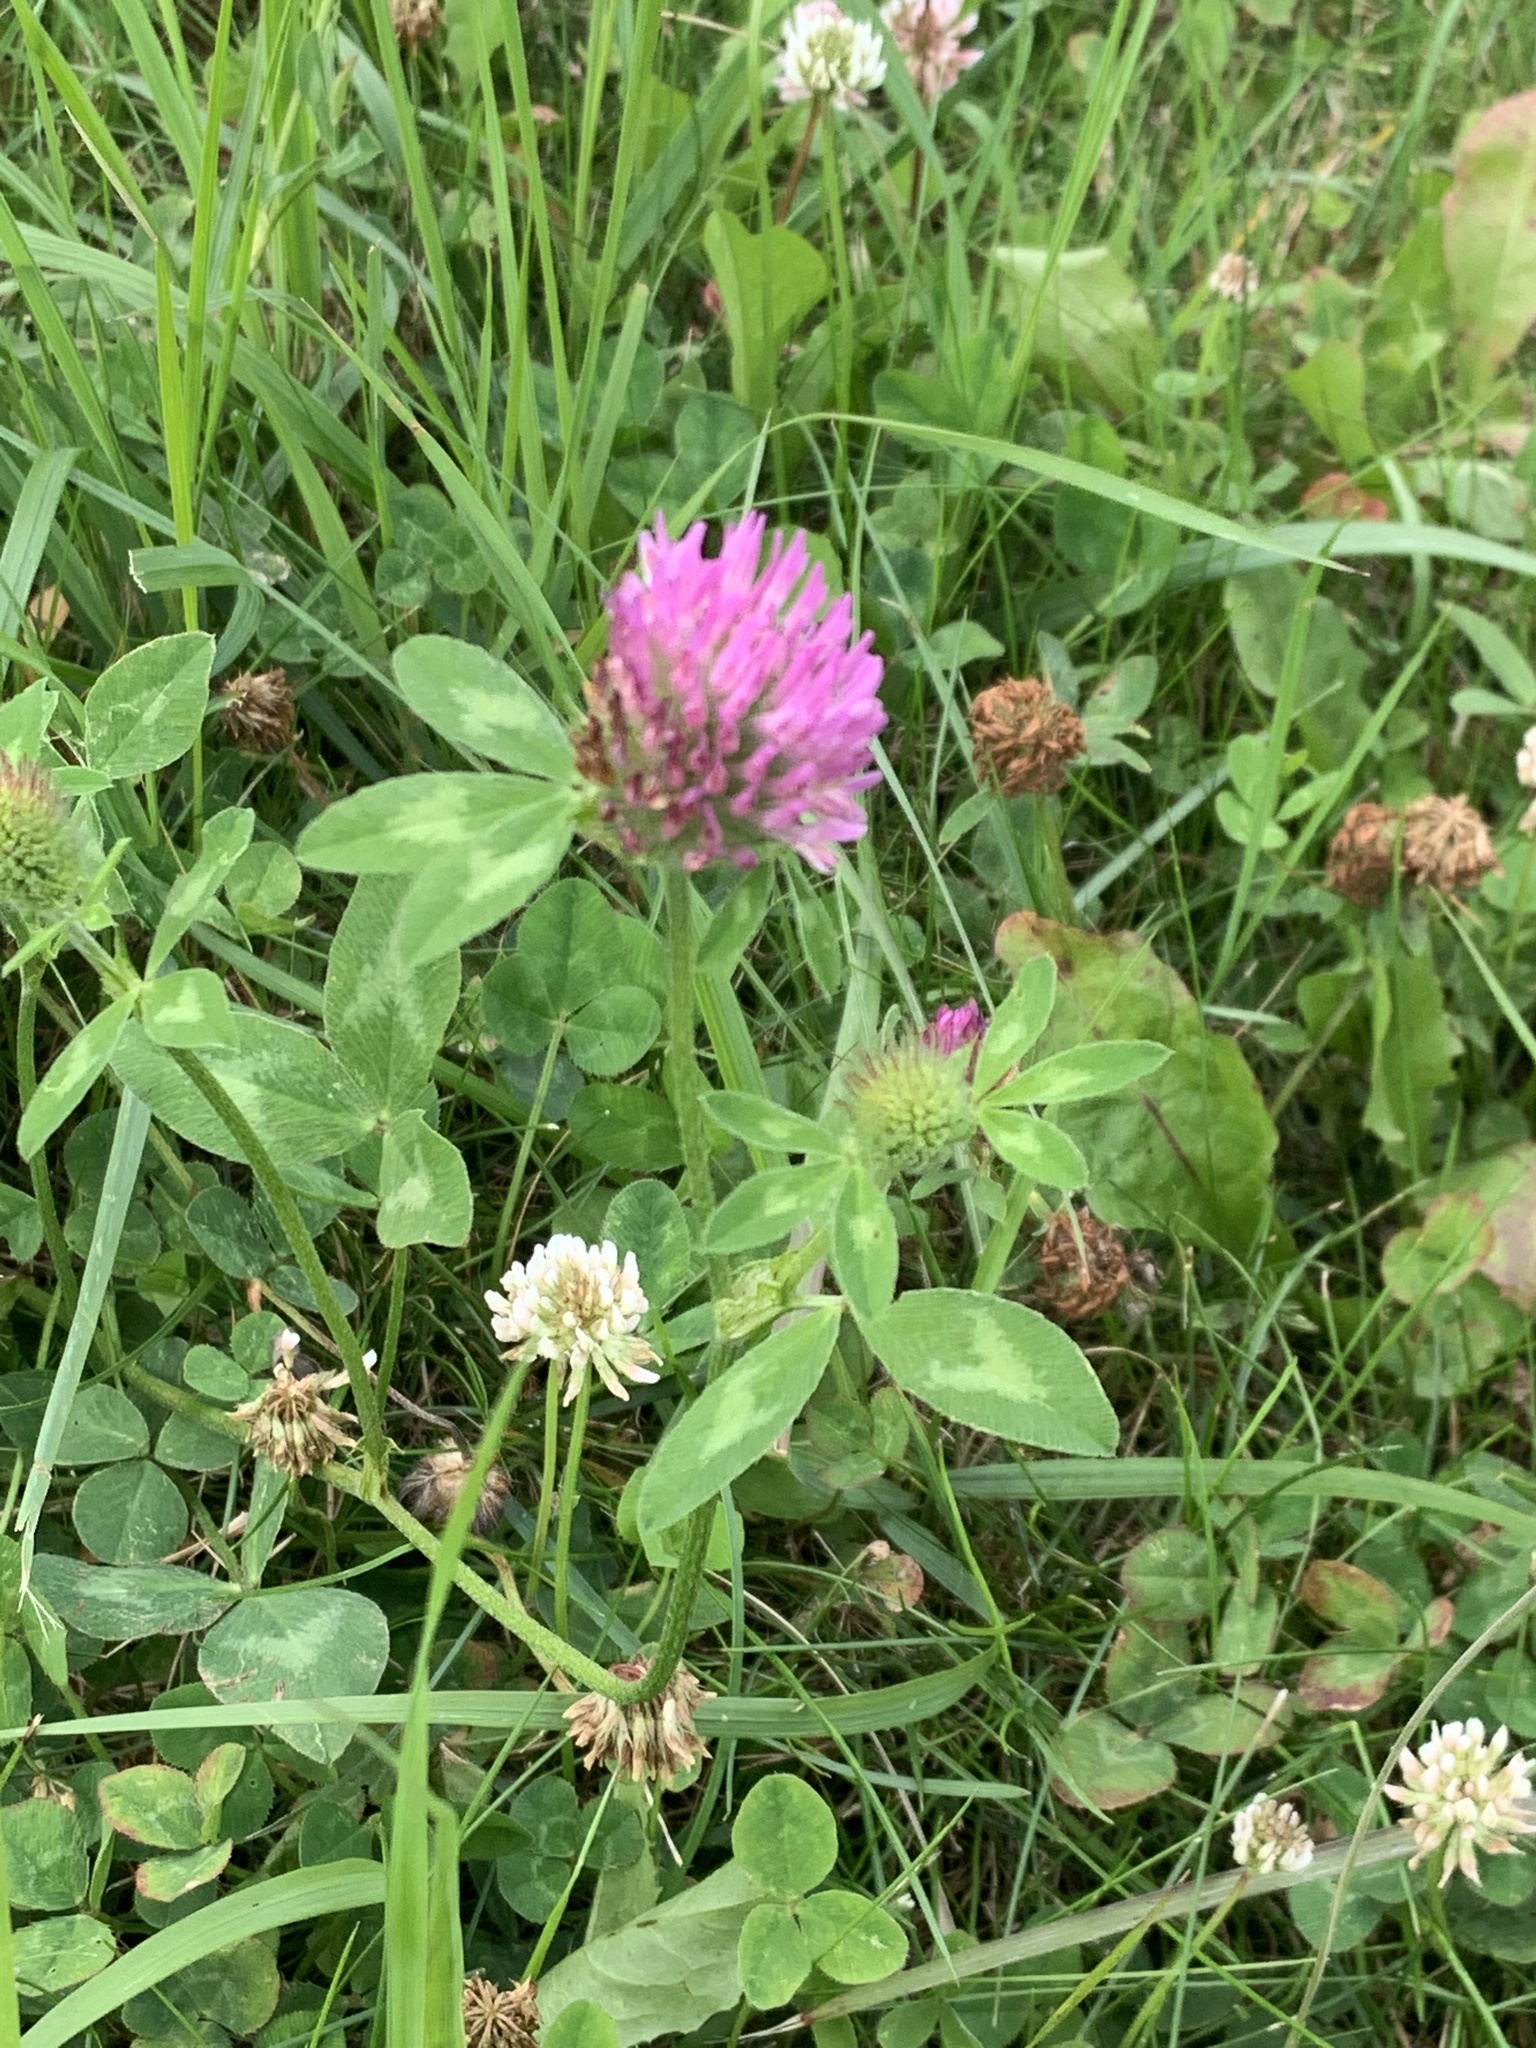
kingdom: Plantae
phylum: Tracheophyta
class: Magnoliopsida
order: Fabales
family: Fabaceae
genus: Trifolium
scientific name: Trifolium pratense
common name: Red clover
